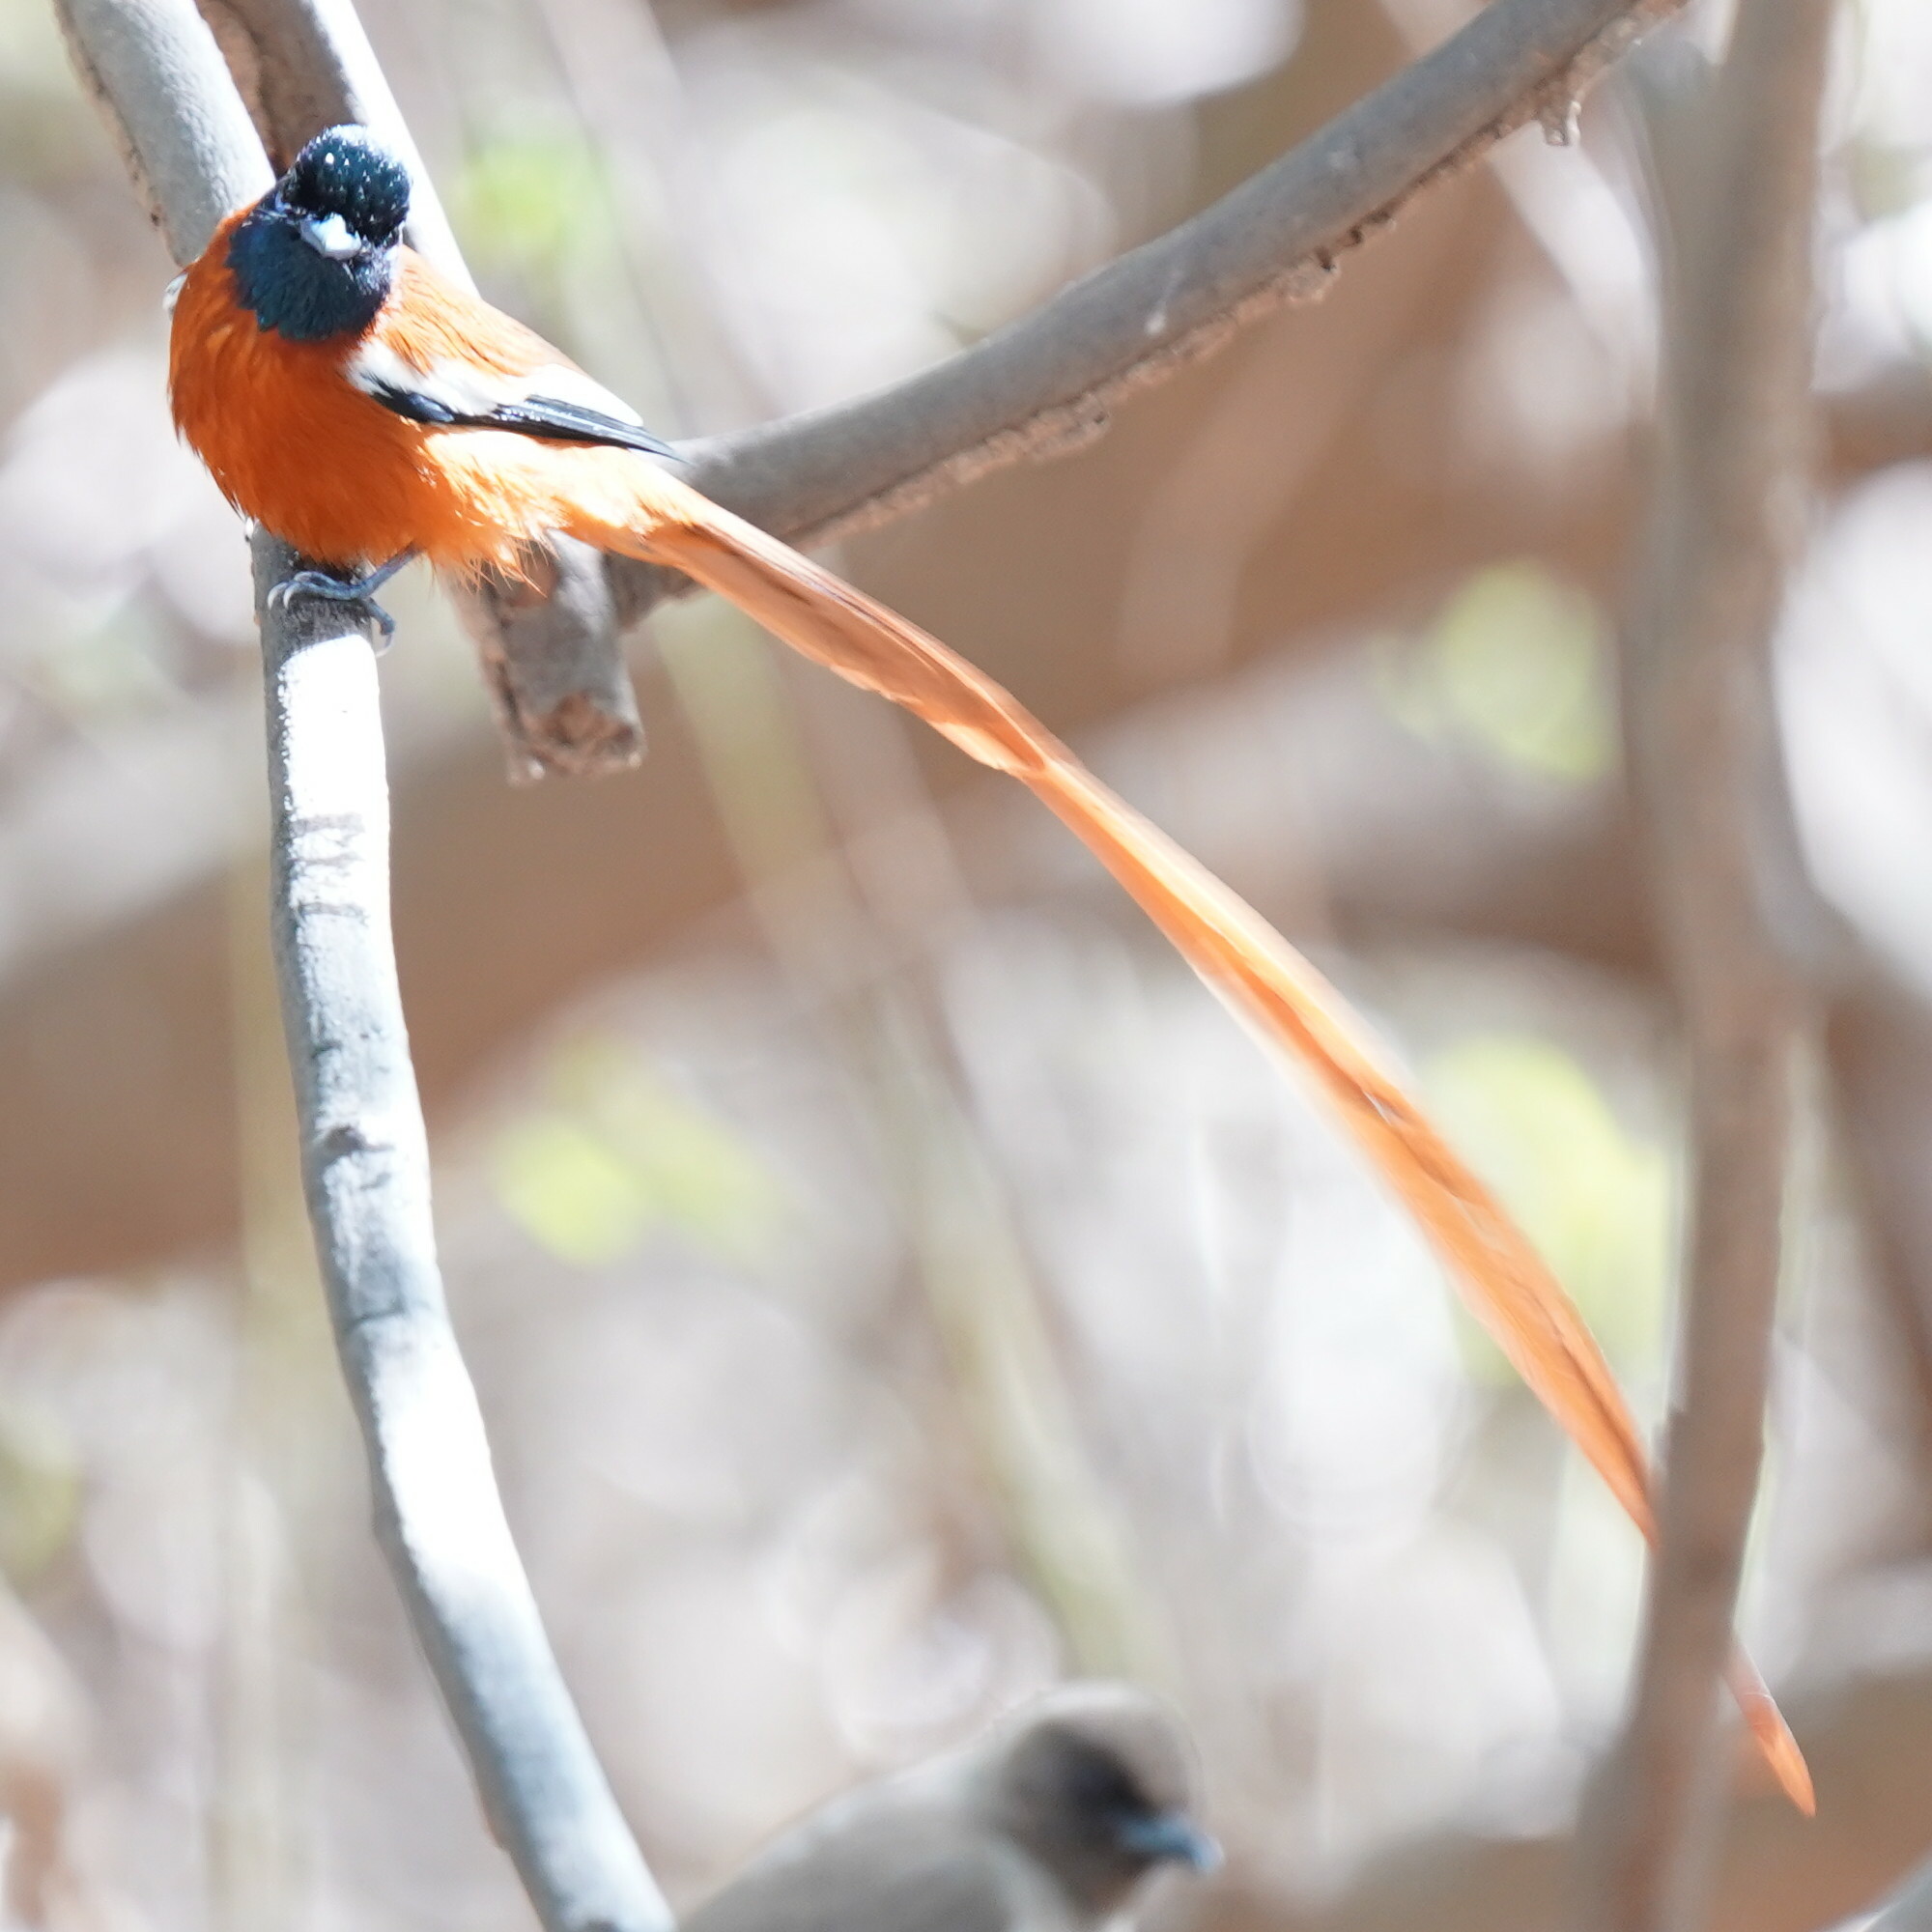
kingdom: Animalia
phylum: Chordata
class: Aves
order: Passeriformes
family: Monarchidae
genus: Terpsiphone
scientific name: Terpsiphone rufiventer
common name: Red-bellied paradise flycatcher
